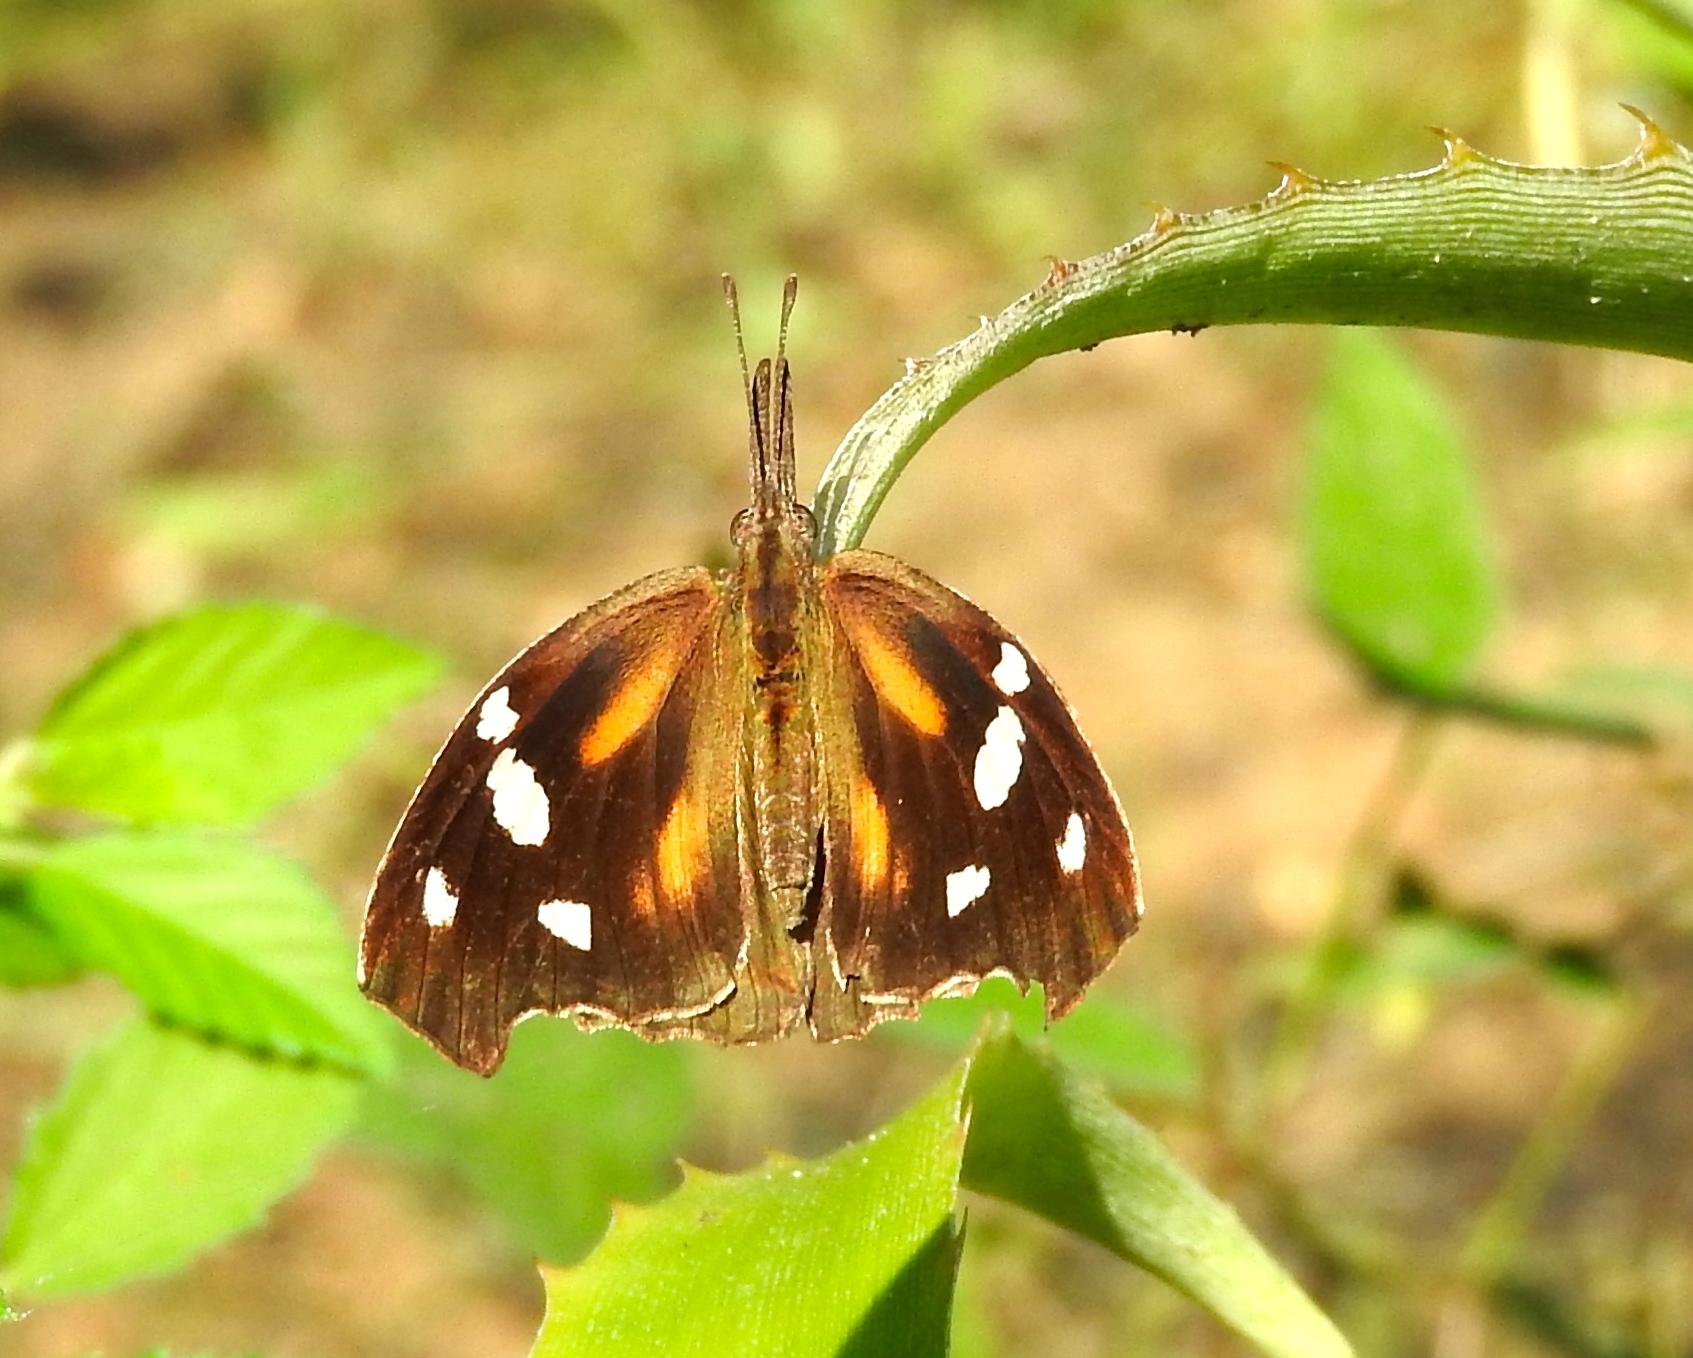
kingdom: Animalia
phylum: Arthropoda
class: Insecta
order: Lepidoptera
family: Nymphalidae
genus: Libytheana
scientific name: Libytheana carinenta
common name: American snout
